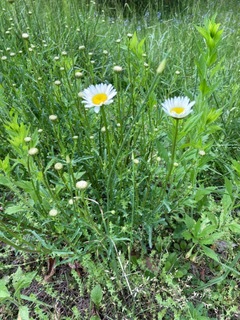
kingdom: Plantae
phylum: Tracheophyta
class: Magnoliopsida
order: Asterales
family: Asteraceae
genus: Leucanthemum
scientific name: Leucanthemum vulgare
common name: Oxeye daisy
